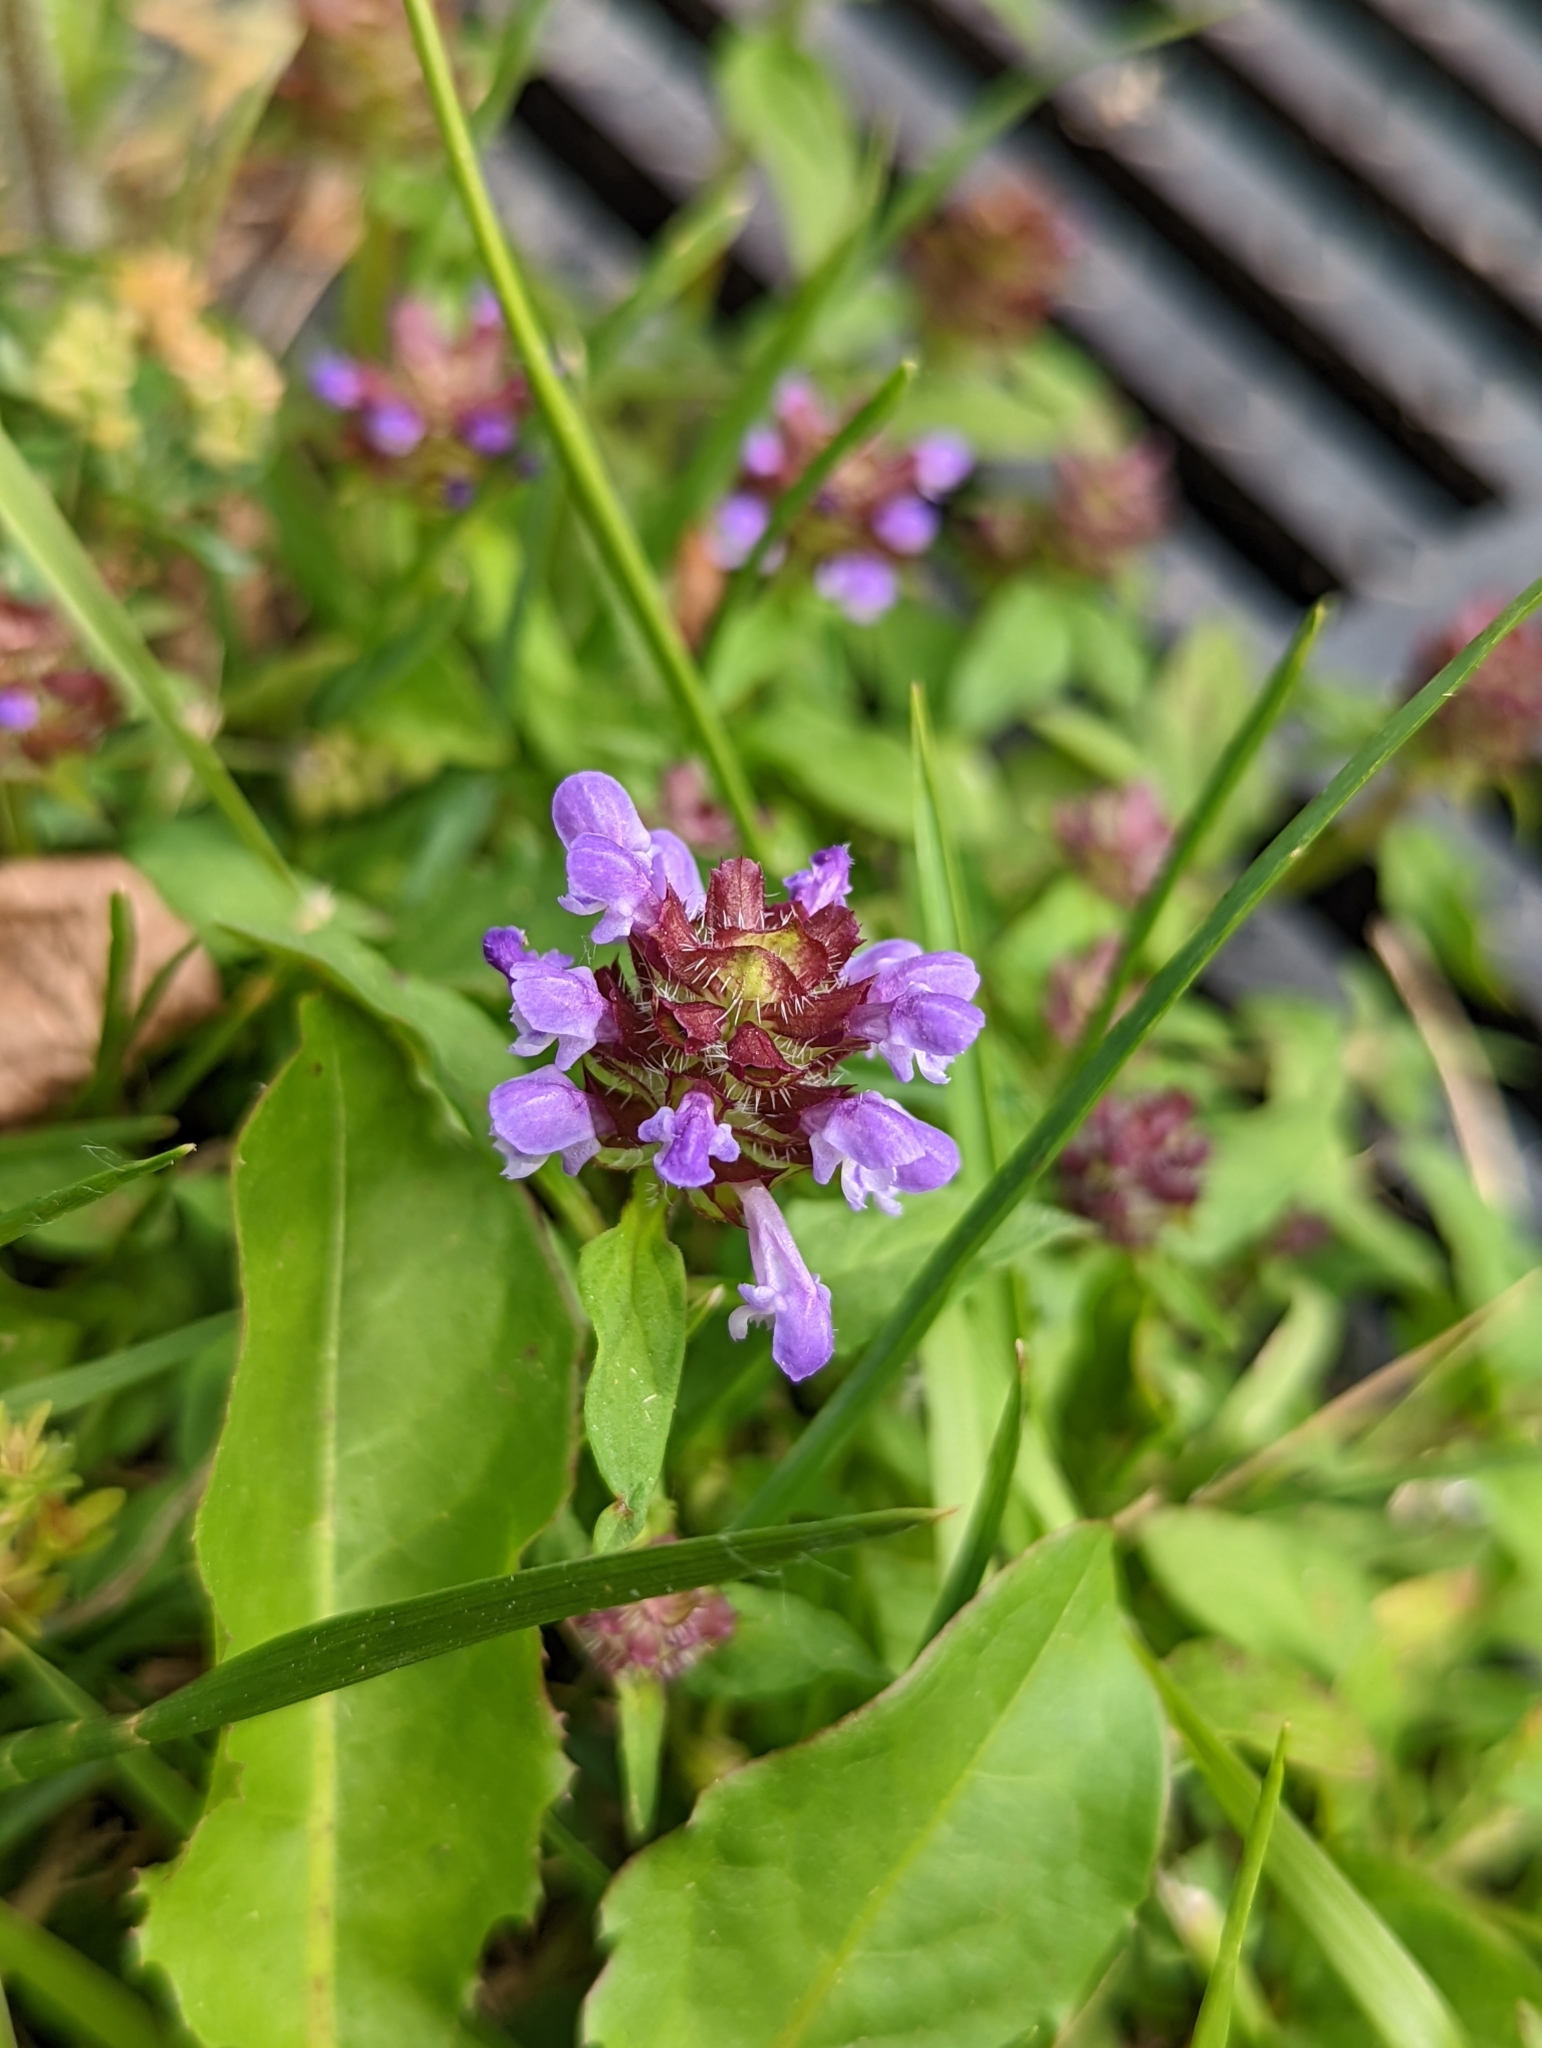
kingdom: Plantae
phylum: Tracheophyta
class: Magnoliopsida
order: Lamiales
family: Lamiaceae
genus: Prunella
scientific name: Prunella vulgaris
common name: Heal-all
